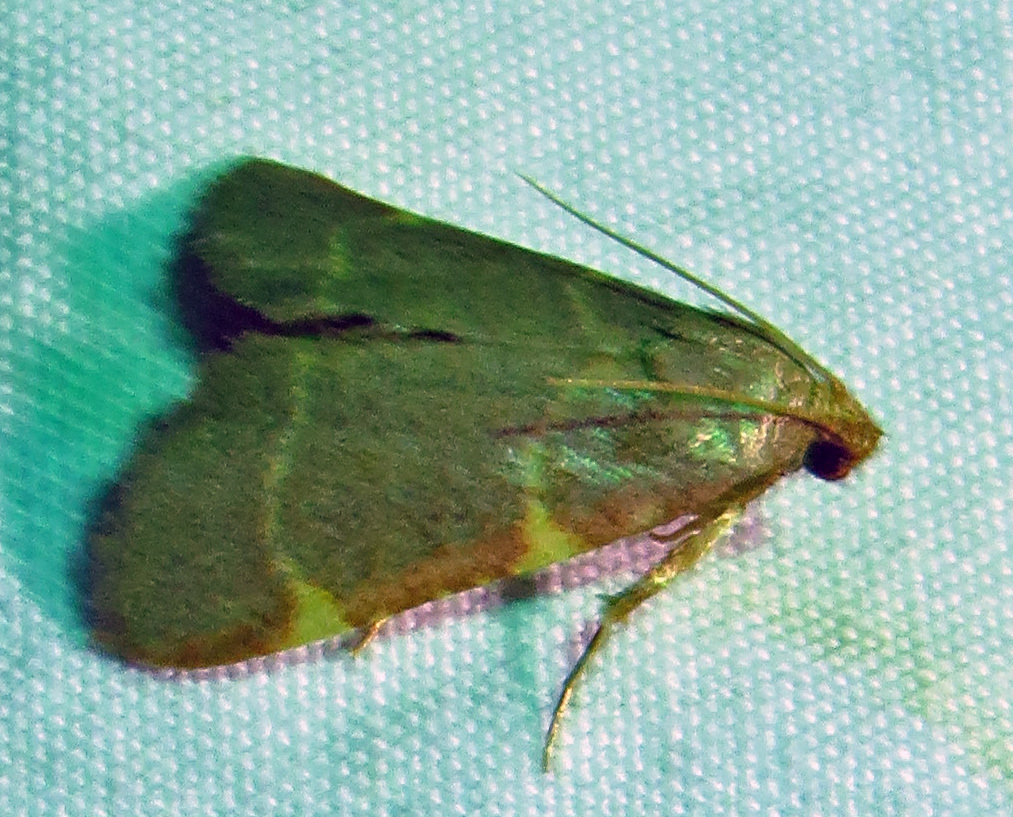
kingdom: Animalia
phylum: Arthropoda
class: Insecta
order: Lepidoptera
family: Pyralidae
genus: Hypsopygia
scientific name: Hypsopygia binodulalis
